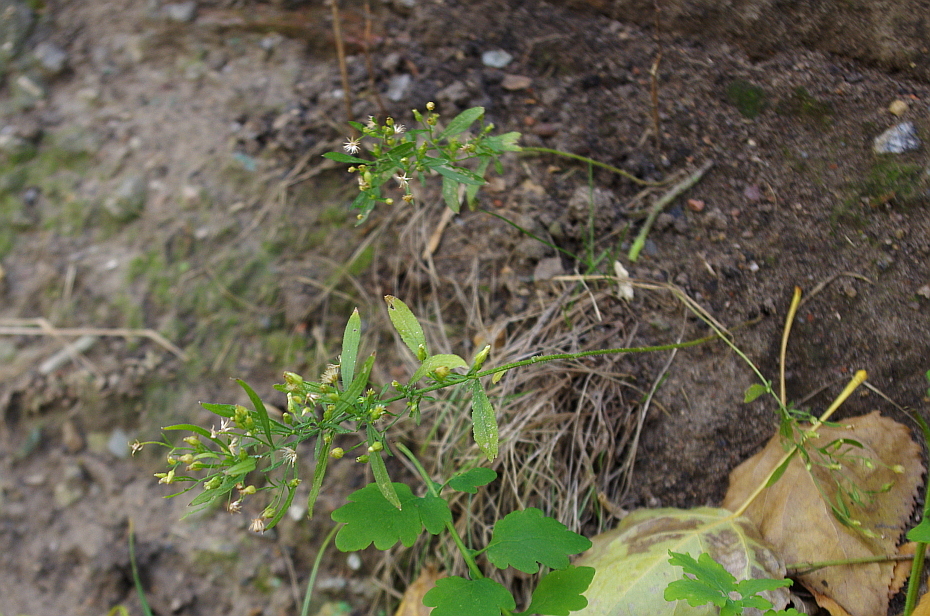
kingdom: Plantae
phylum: Tracheophyta
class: Magnoliopsida
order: Asterales
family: Asteraceae
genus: Erigeron
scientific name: Erigeron canadensis
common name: Canadian fleabane
